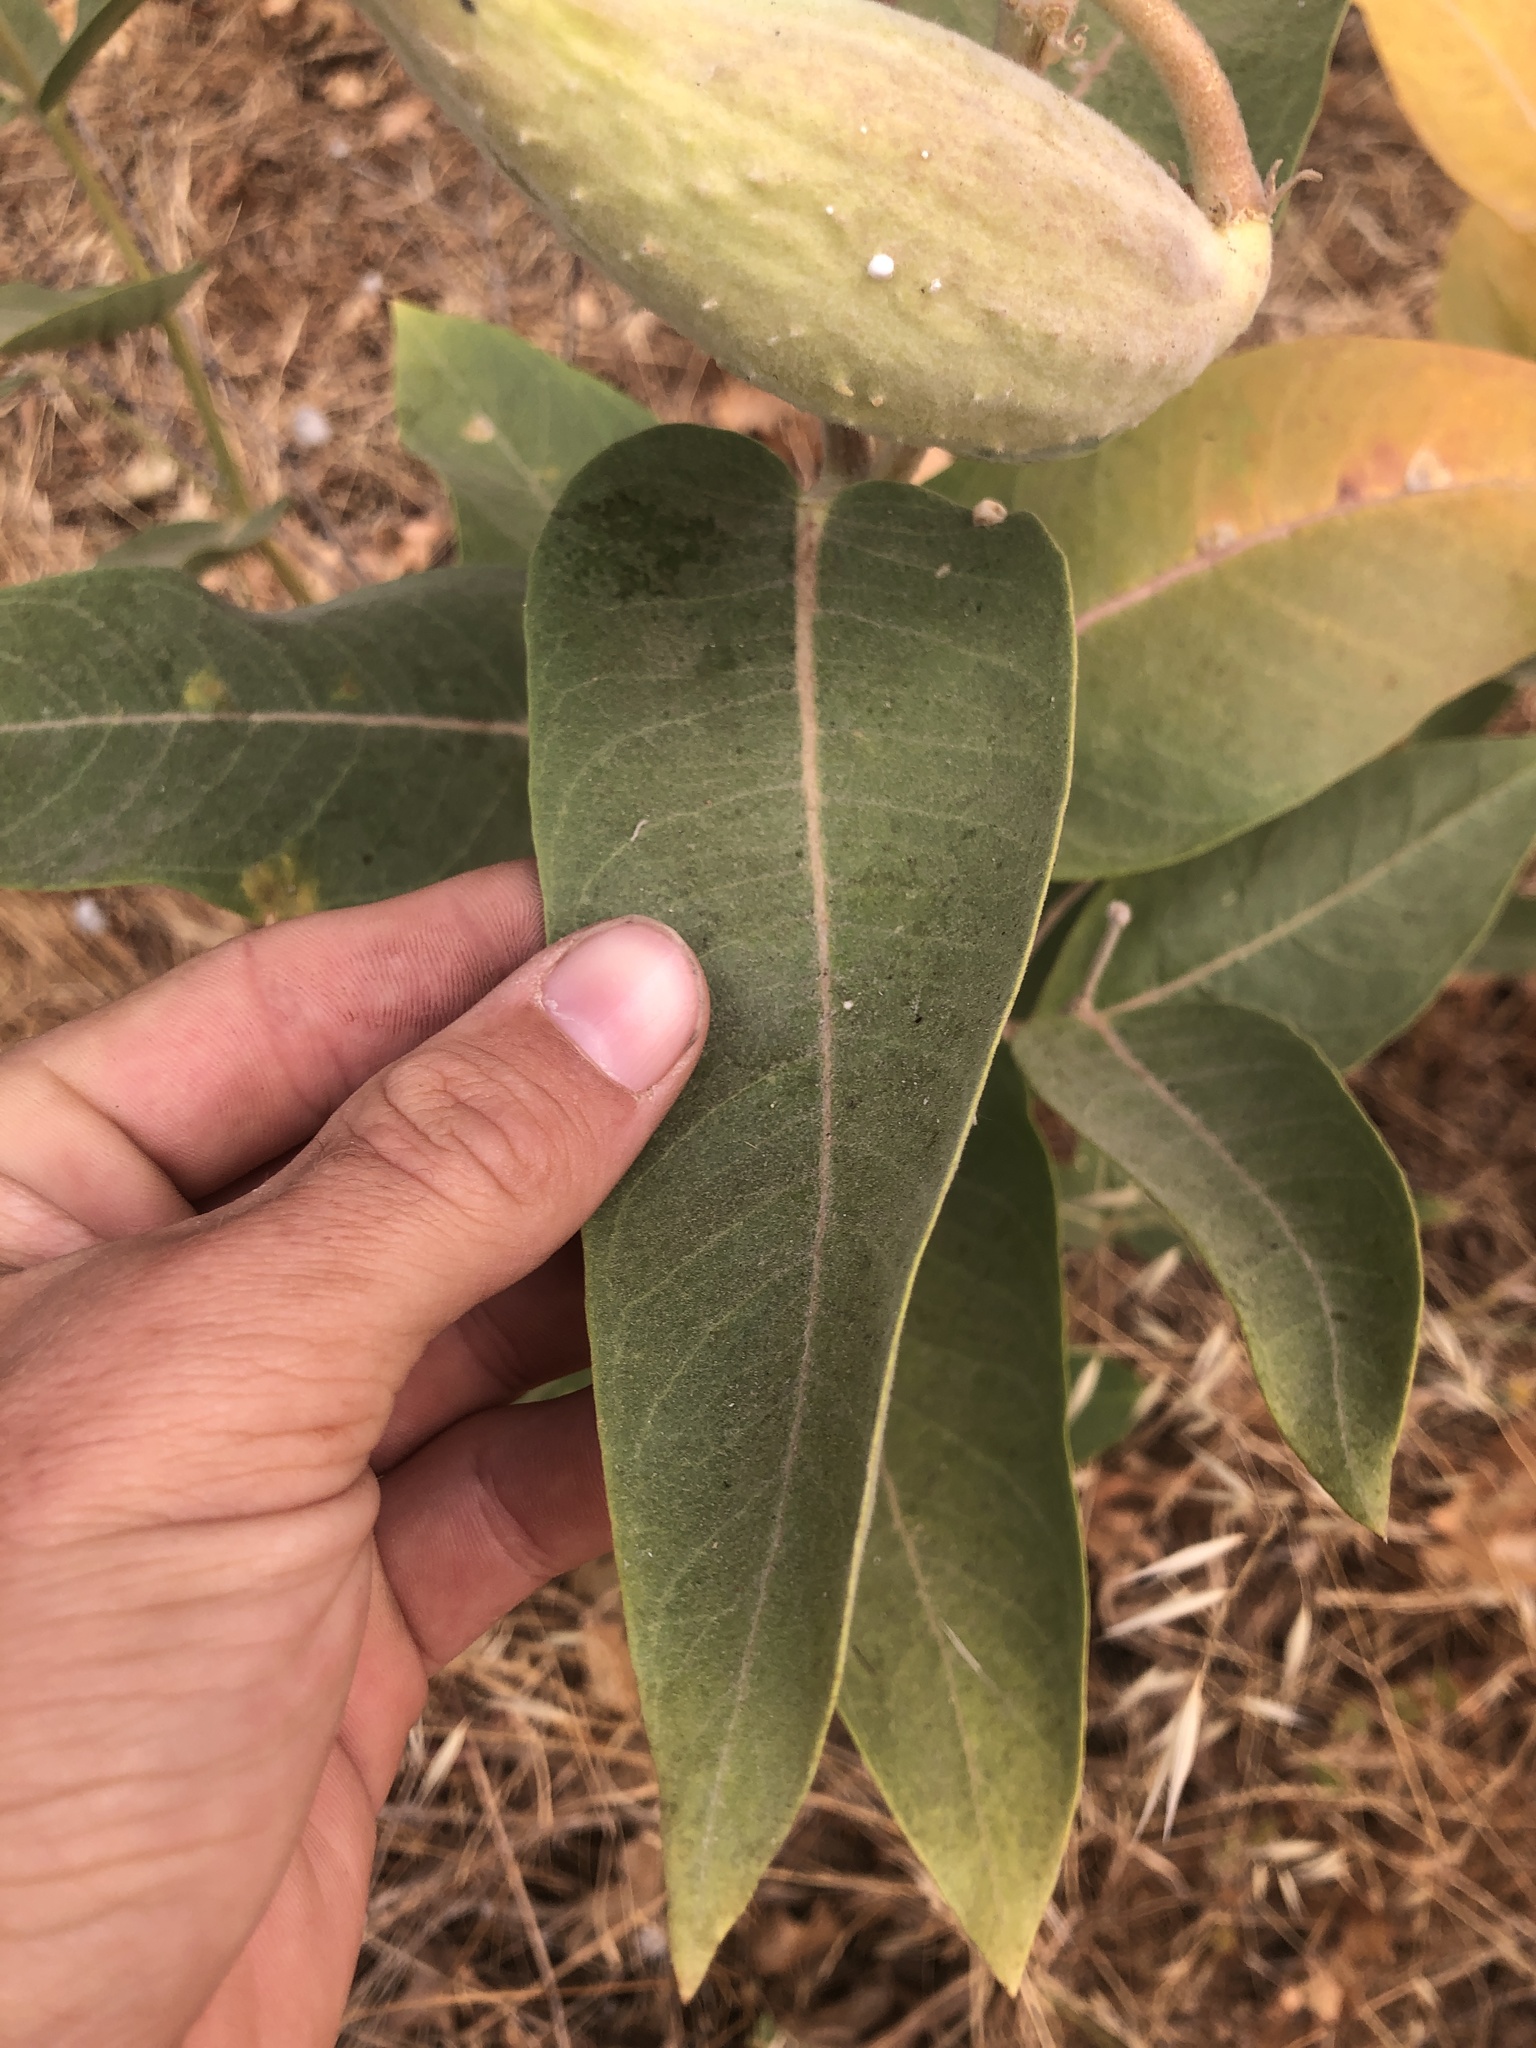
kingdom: Plantae
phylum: Tracheophyta
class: Magnoliopsida
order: Gentianales
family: Apocynaceae
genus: Asclepias
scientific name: Asclepias speciosa
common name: Showy milkweed
